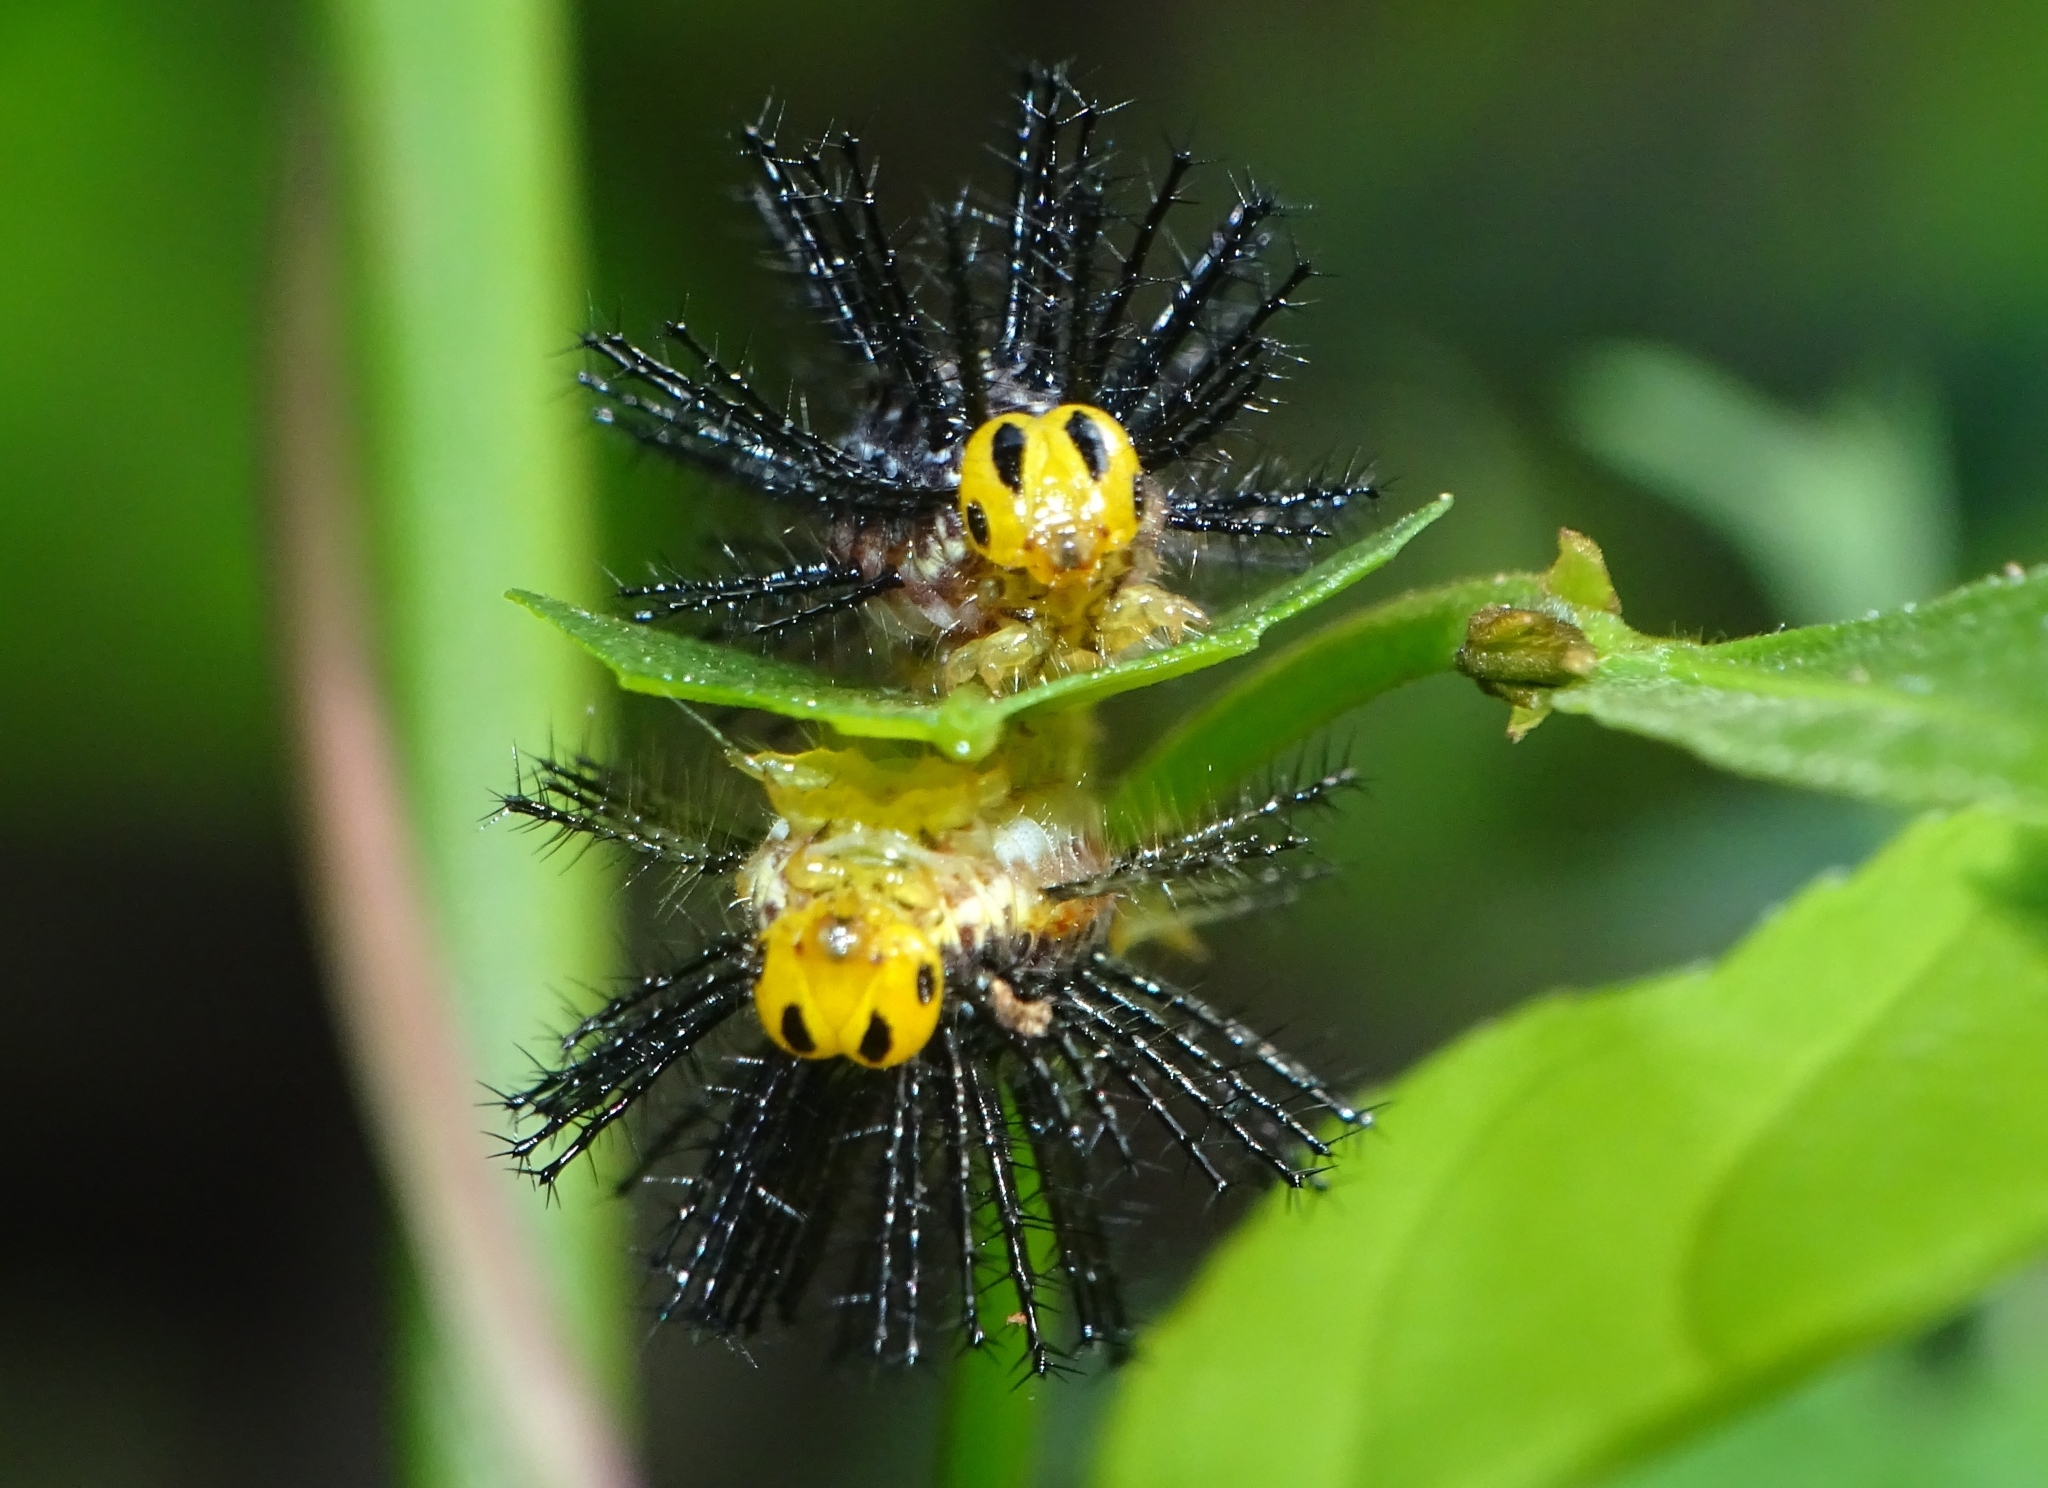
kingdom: Animalia
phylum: Arthropoda
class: Insecta
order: Lepidoptera
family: Nymphalidae
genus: Cirrochroa
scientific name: Cirrochroa thais
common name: Tamil yeoman
